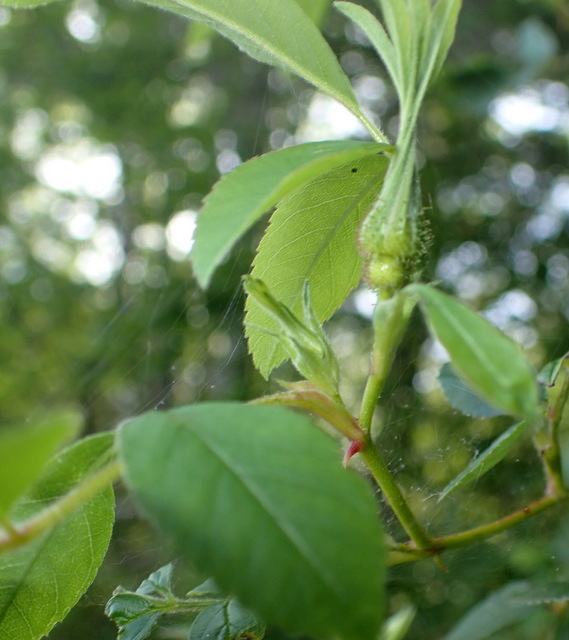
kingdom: Plantae
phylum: Tracheophyta
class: Magnoliopsida
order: Rosales
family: Rosaceae
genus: Rosa
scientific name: Rosa palustris
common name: Swamp rose
